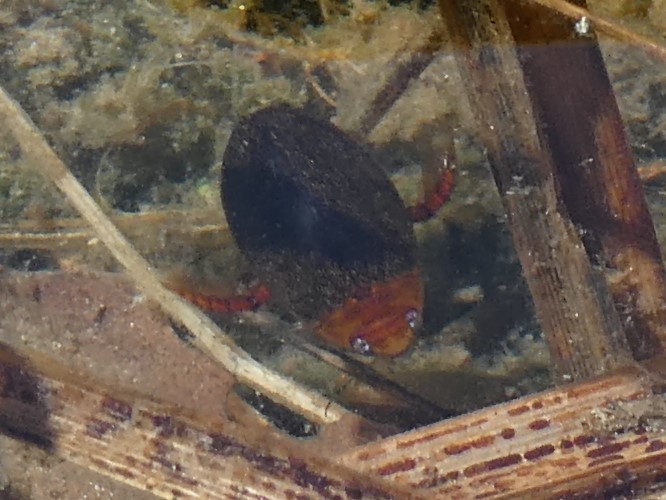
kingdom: Animalia
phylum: Arthropoda
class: Insecta
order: Coleoptera
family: Dytiscidae
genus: Graphoderus
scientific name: Graphoderus liberus
